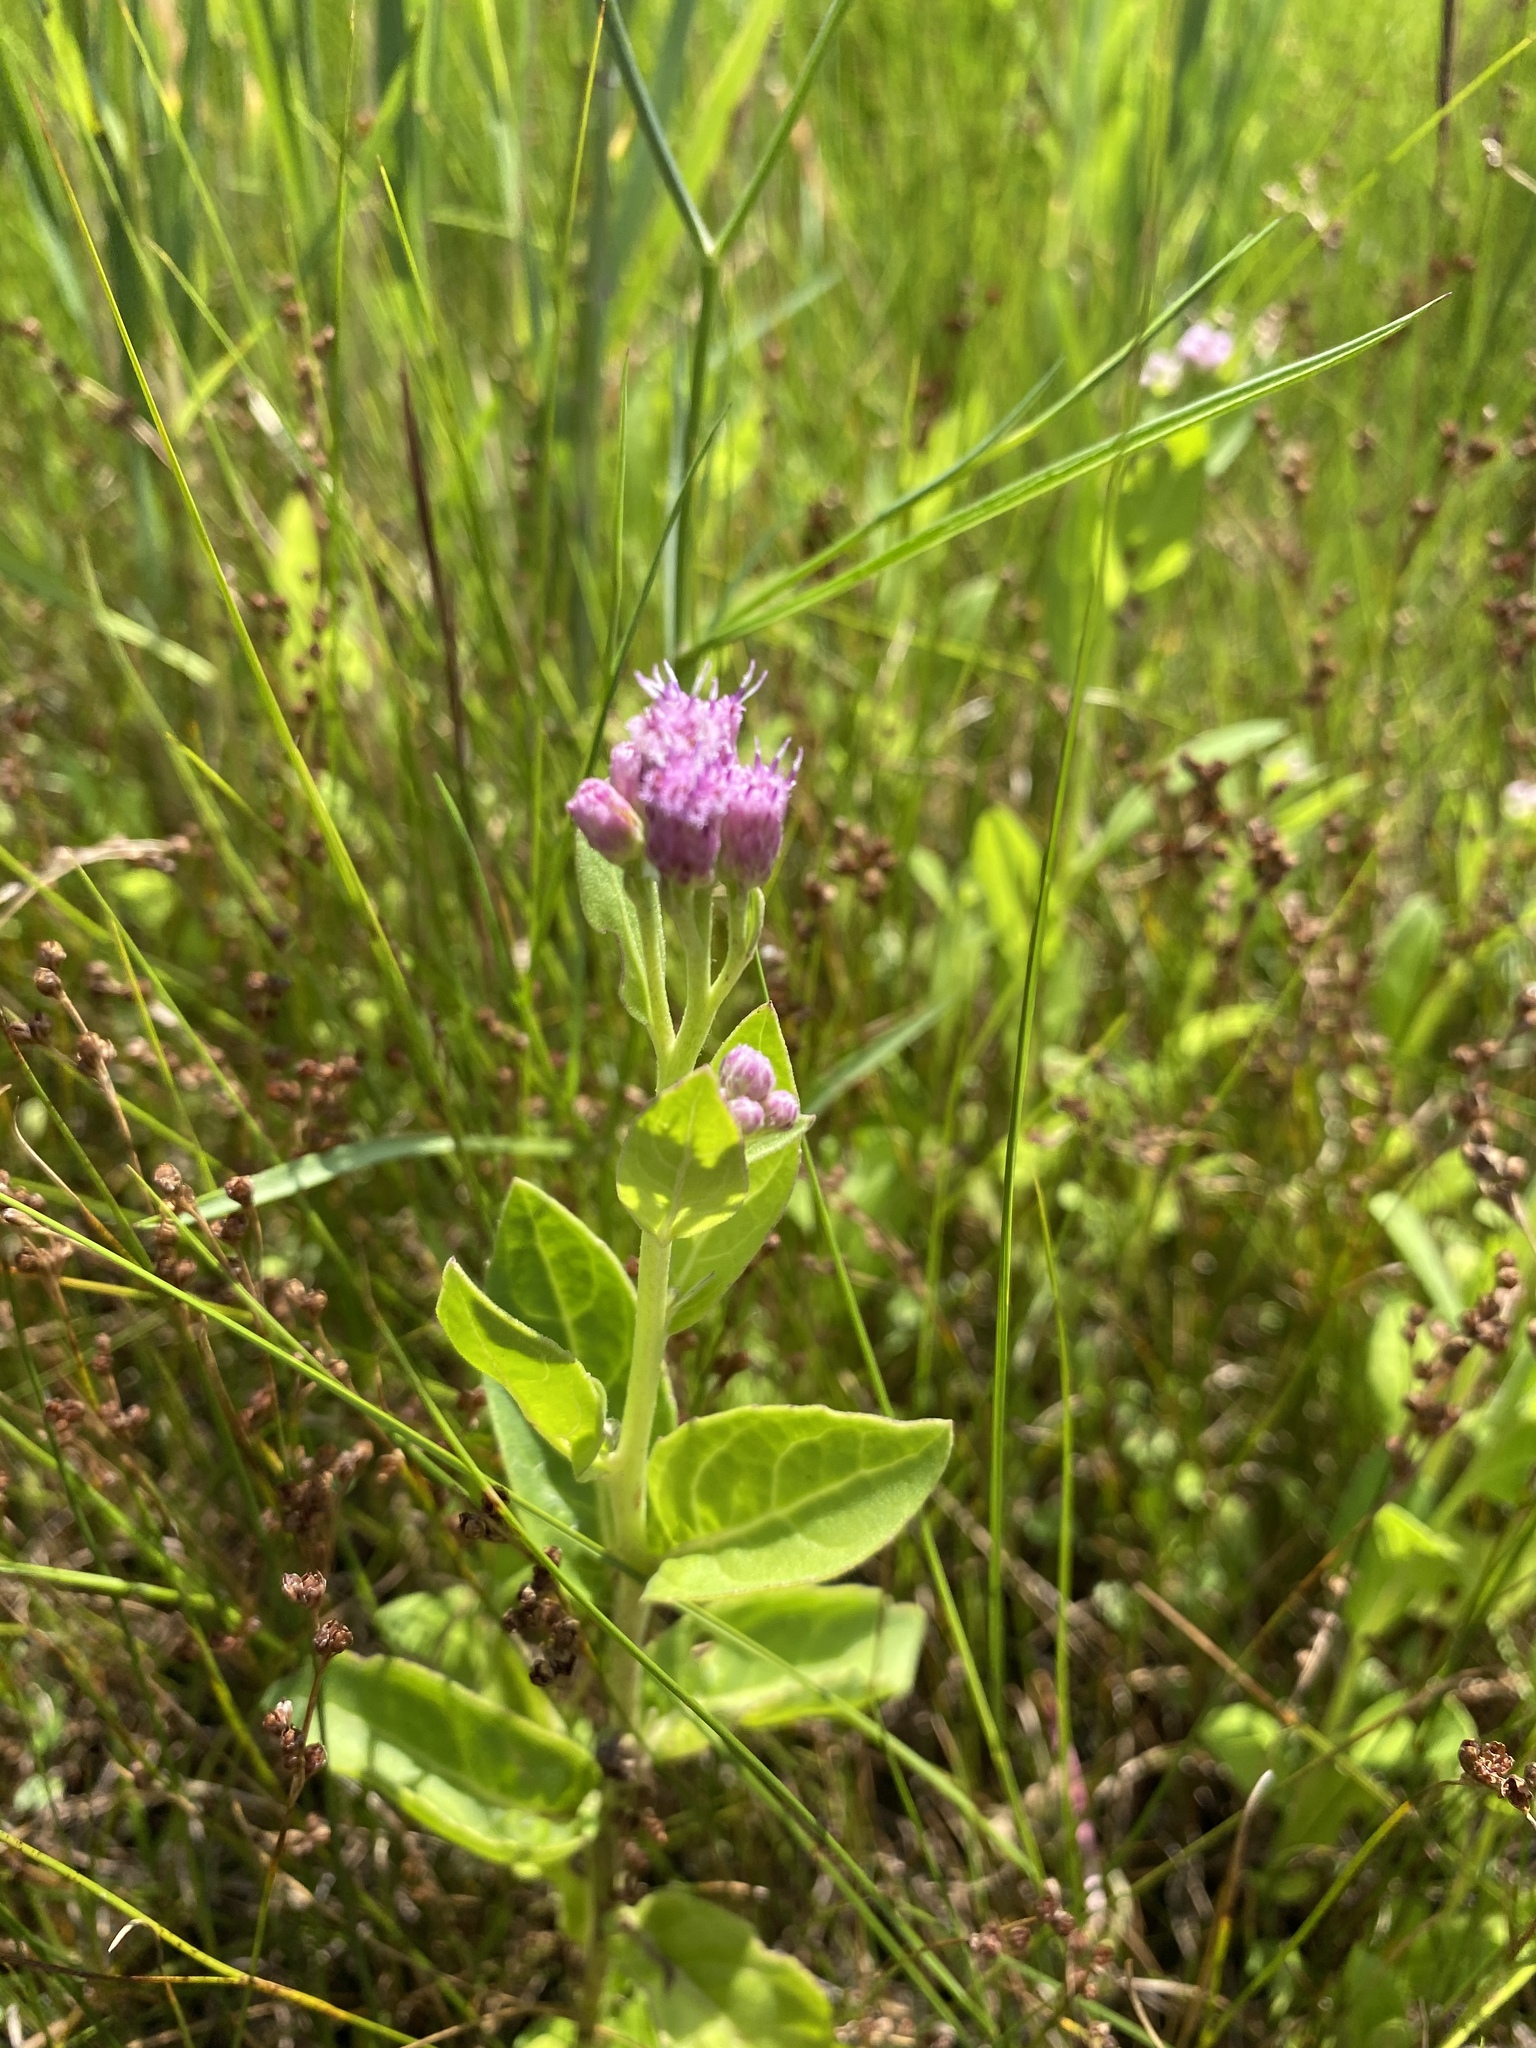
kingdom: Plantae
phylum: Tracheophyta
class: Magnoliopsida
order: Asterales
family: Asteraceae
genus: Pluchea
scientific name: Pluchea odorata
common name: Saltmarsh fleabane
